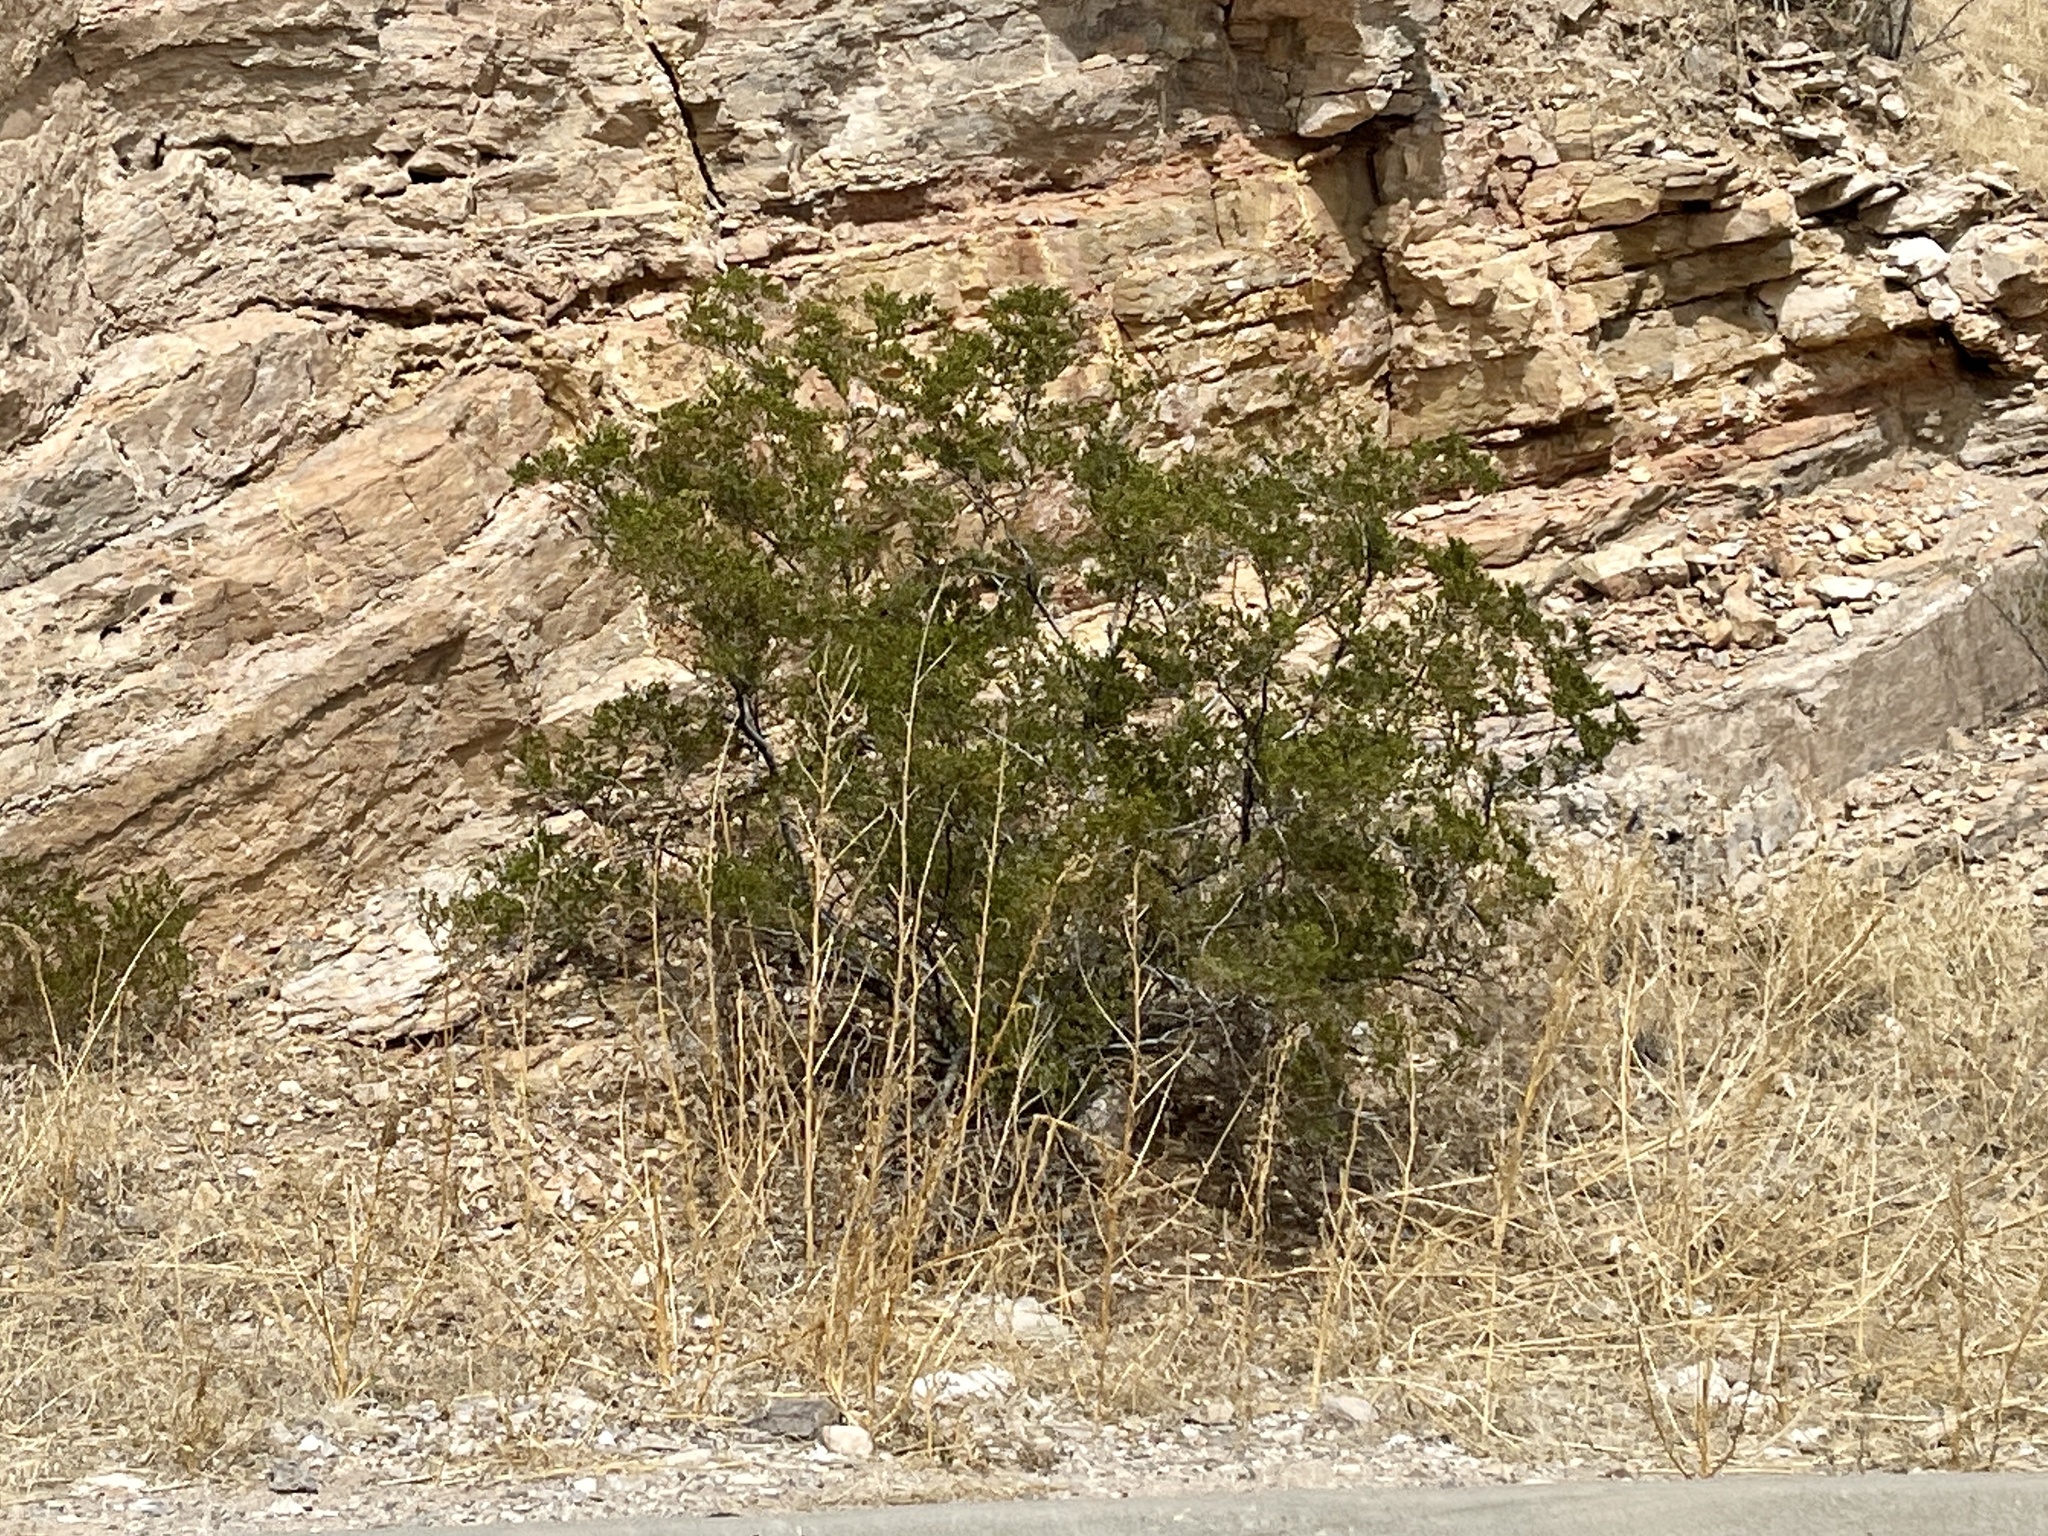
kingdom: Plantae
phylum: Tracheophyta
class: Magnoliopsida
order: Zygophyllales
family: Zygophyllaceae
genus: Larrea
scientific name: Larrea tridentata
